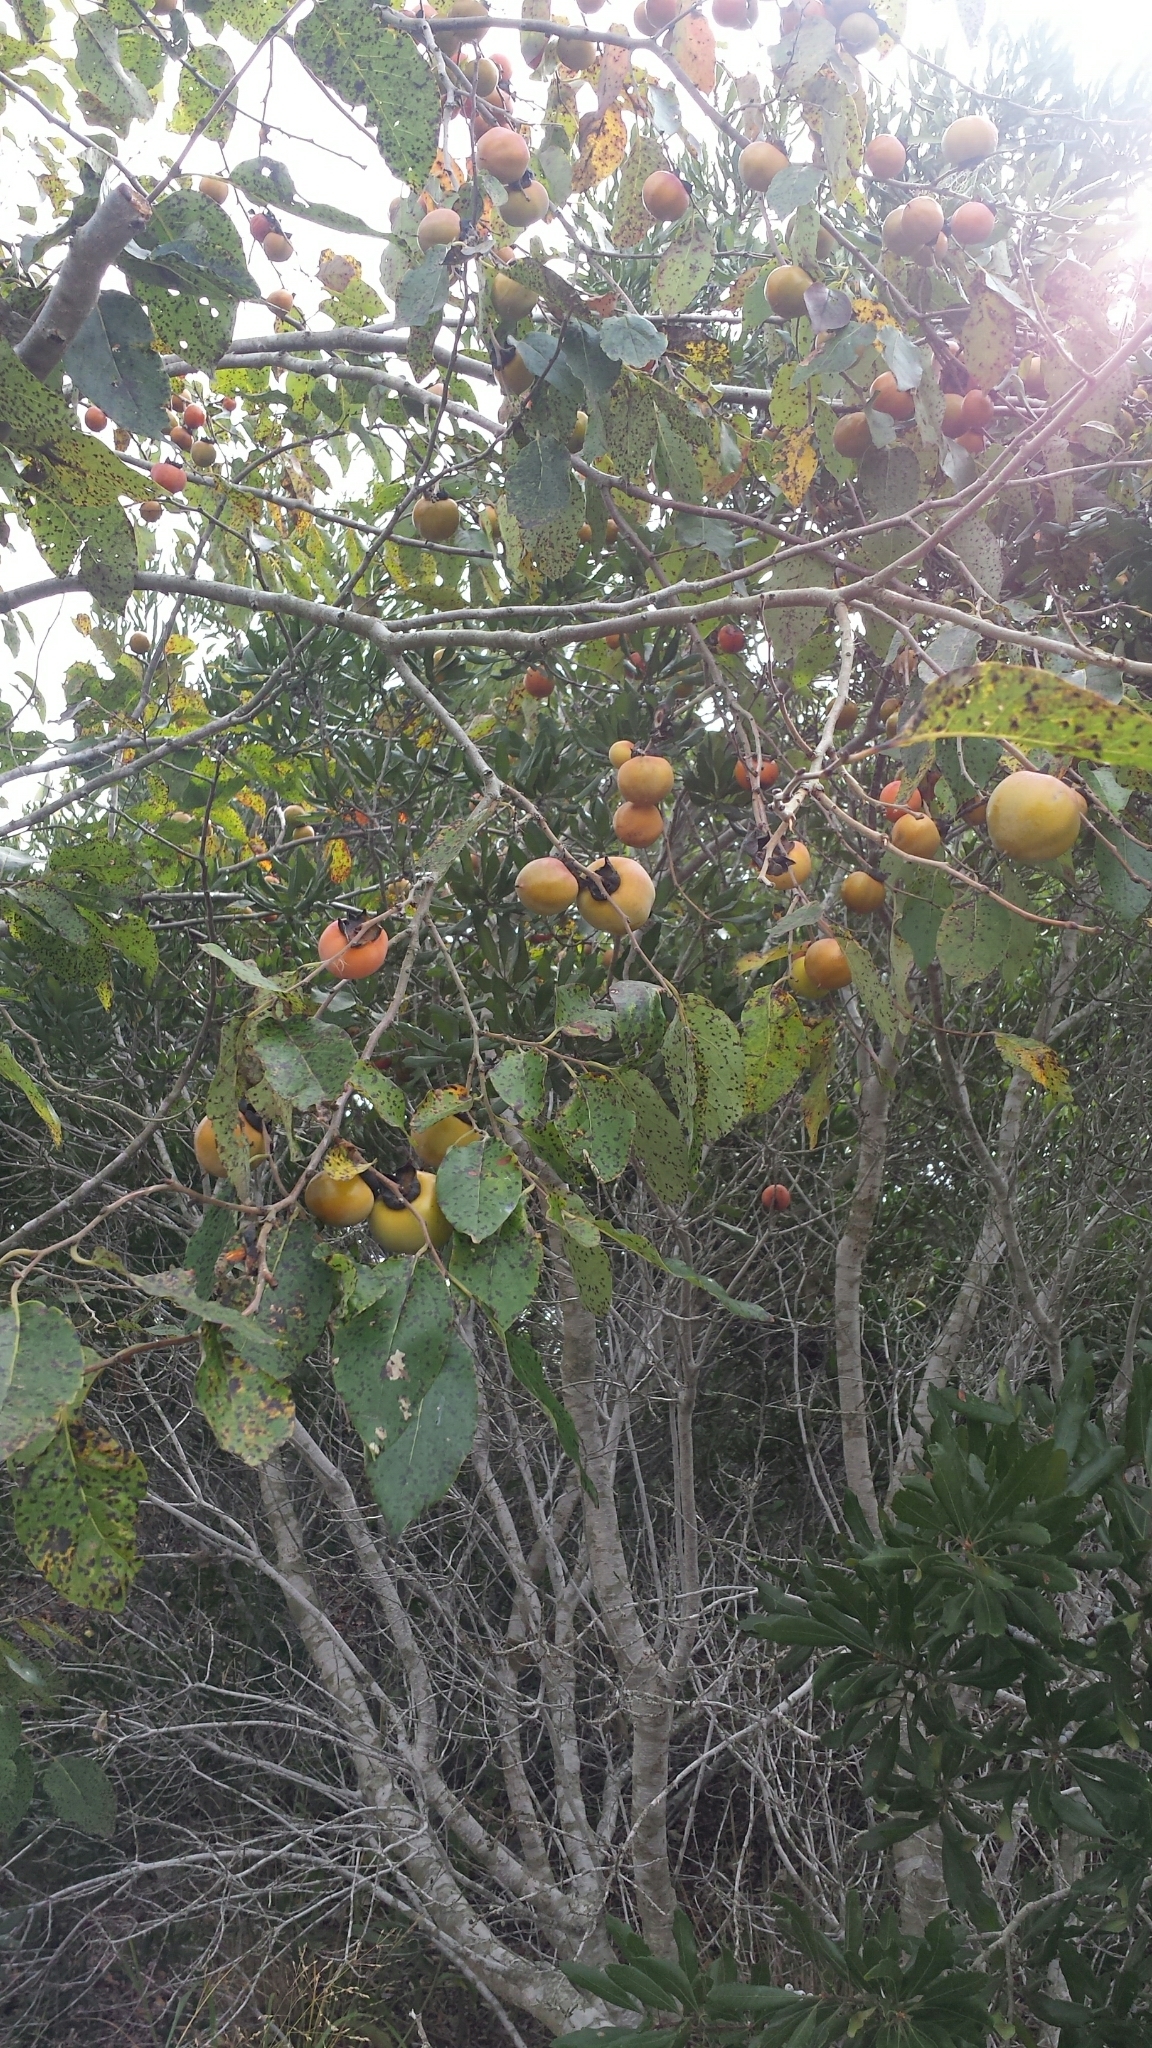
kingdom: Plantae
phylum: Tracheophyta
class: Magnoliopsida
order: Ericales
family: Ebenaceae
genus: Diospyros
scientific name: Diospyros virginiana
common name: Persimmon
